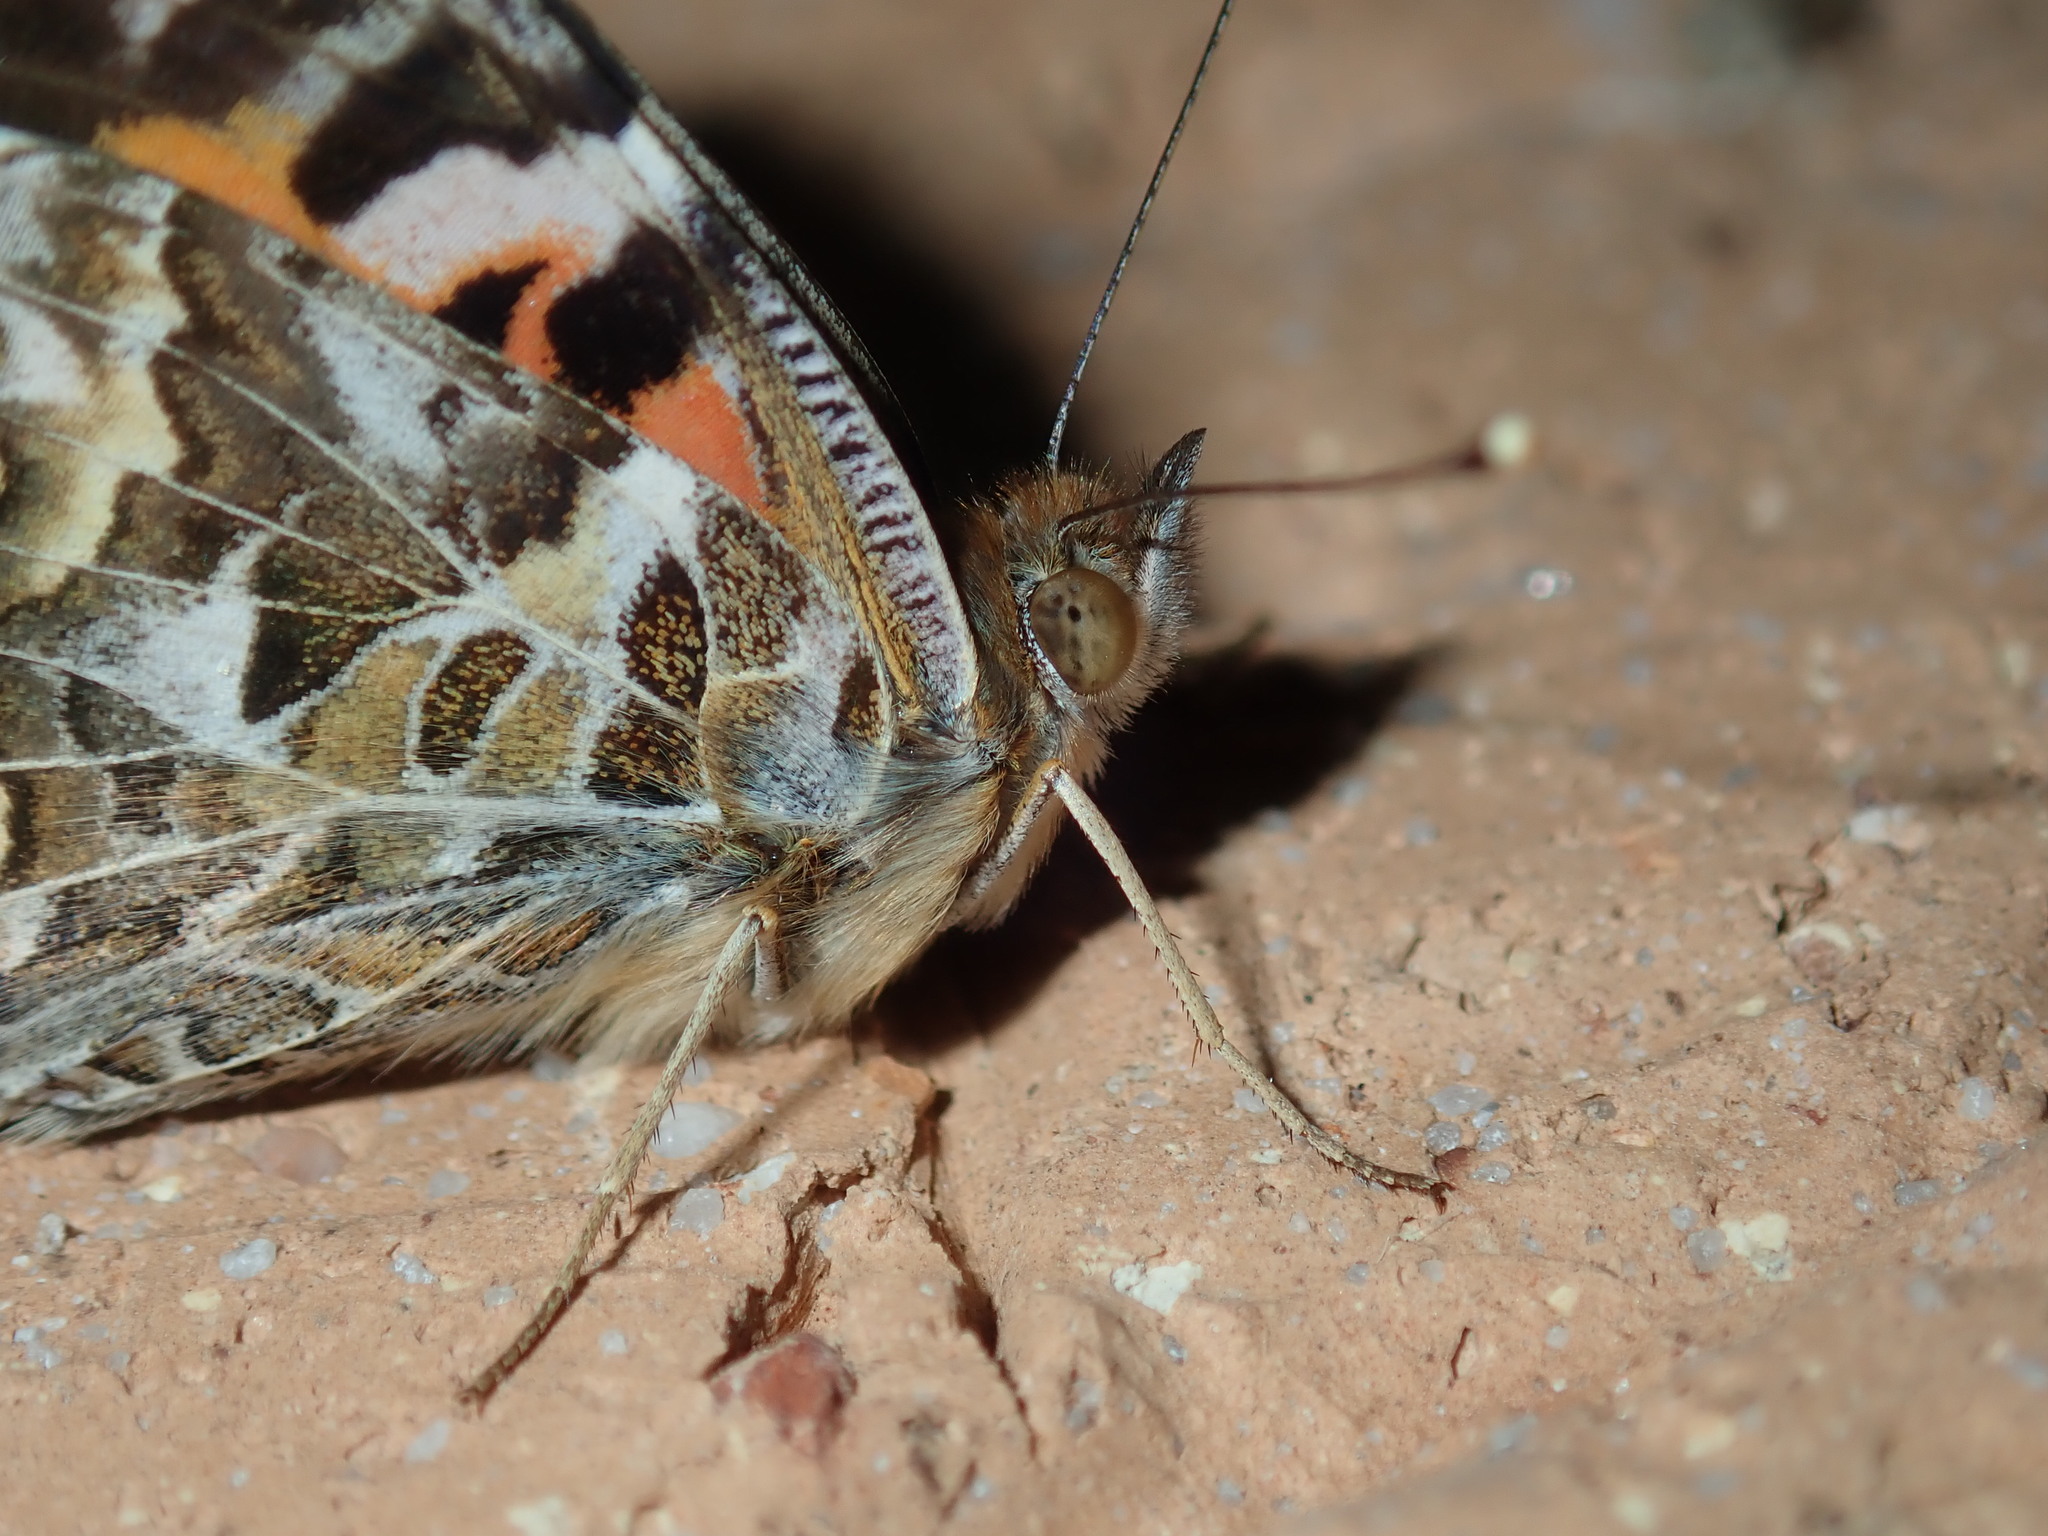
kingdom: Animalia
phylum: Arthropoda
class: Insecta
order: Lepidoptera
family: Nymphalidae
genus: Vanessa
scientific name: Vanessa kershawi
